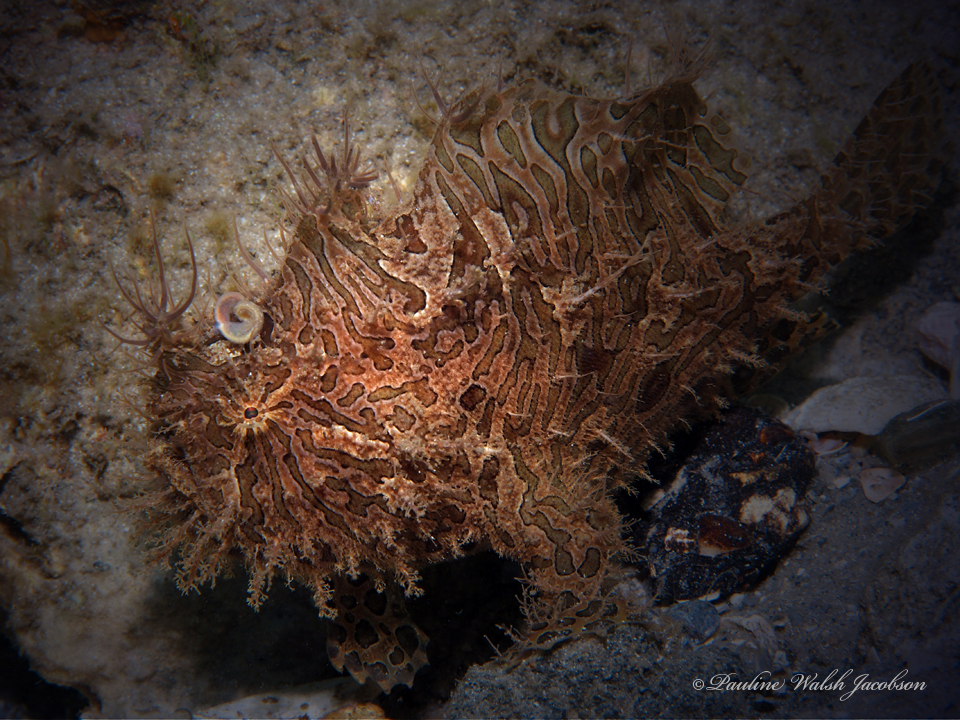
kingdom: Animalia
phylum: Chordata
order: Lophiiformes
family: Antennariidae
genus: Antennarius
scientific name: Antennarius striatus
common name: Striated frogfish
